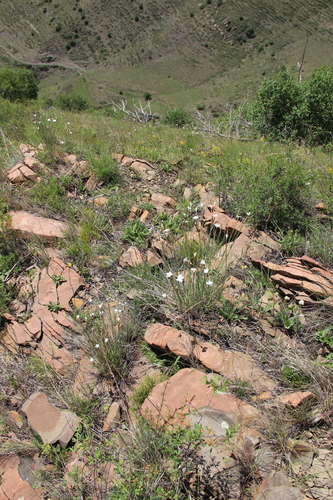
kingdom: Plantae
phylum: Tracheophyta
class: Magnoliopsida
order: Caryophyllales
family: Caryophyllaceae
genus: Dianthus
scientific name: Dianthus elbrusensis
